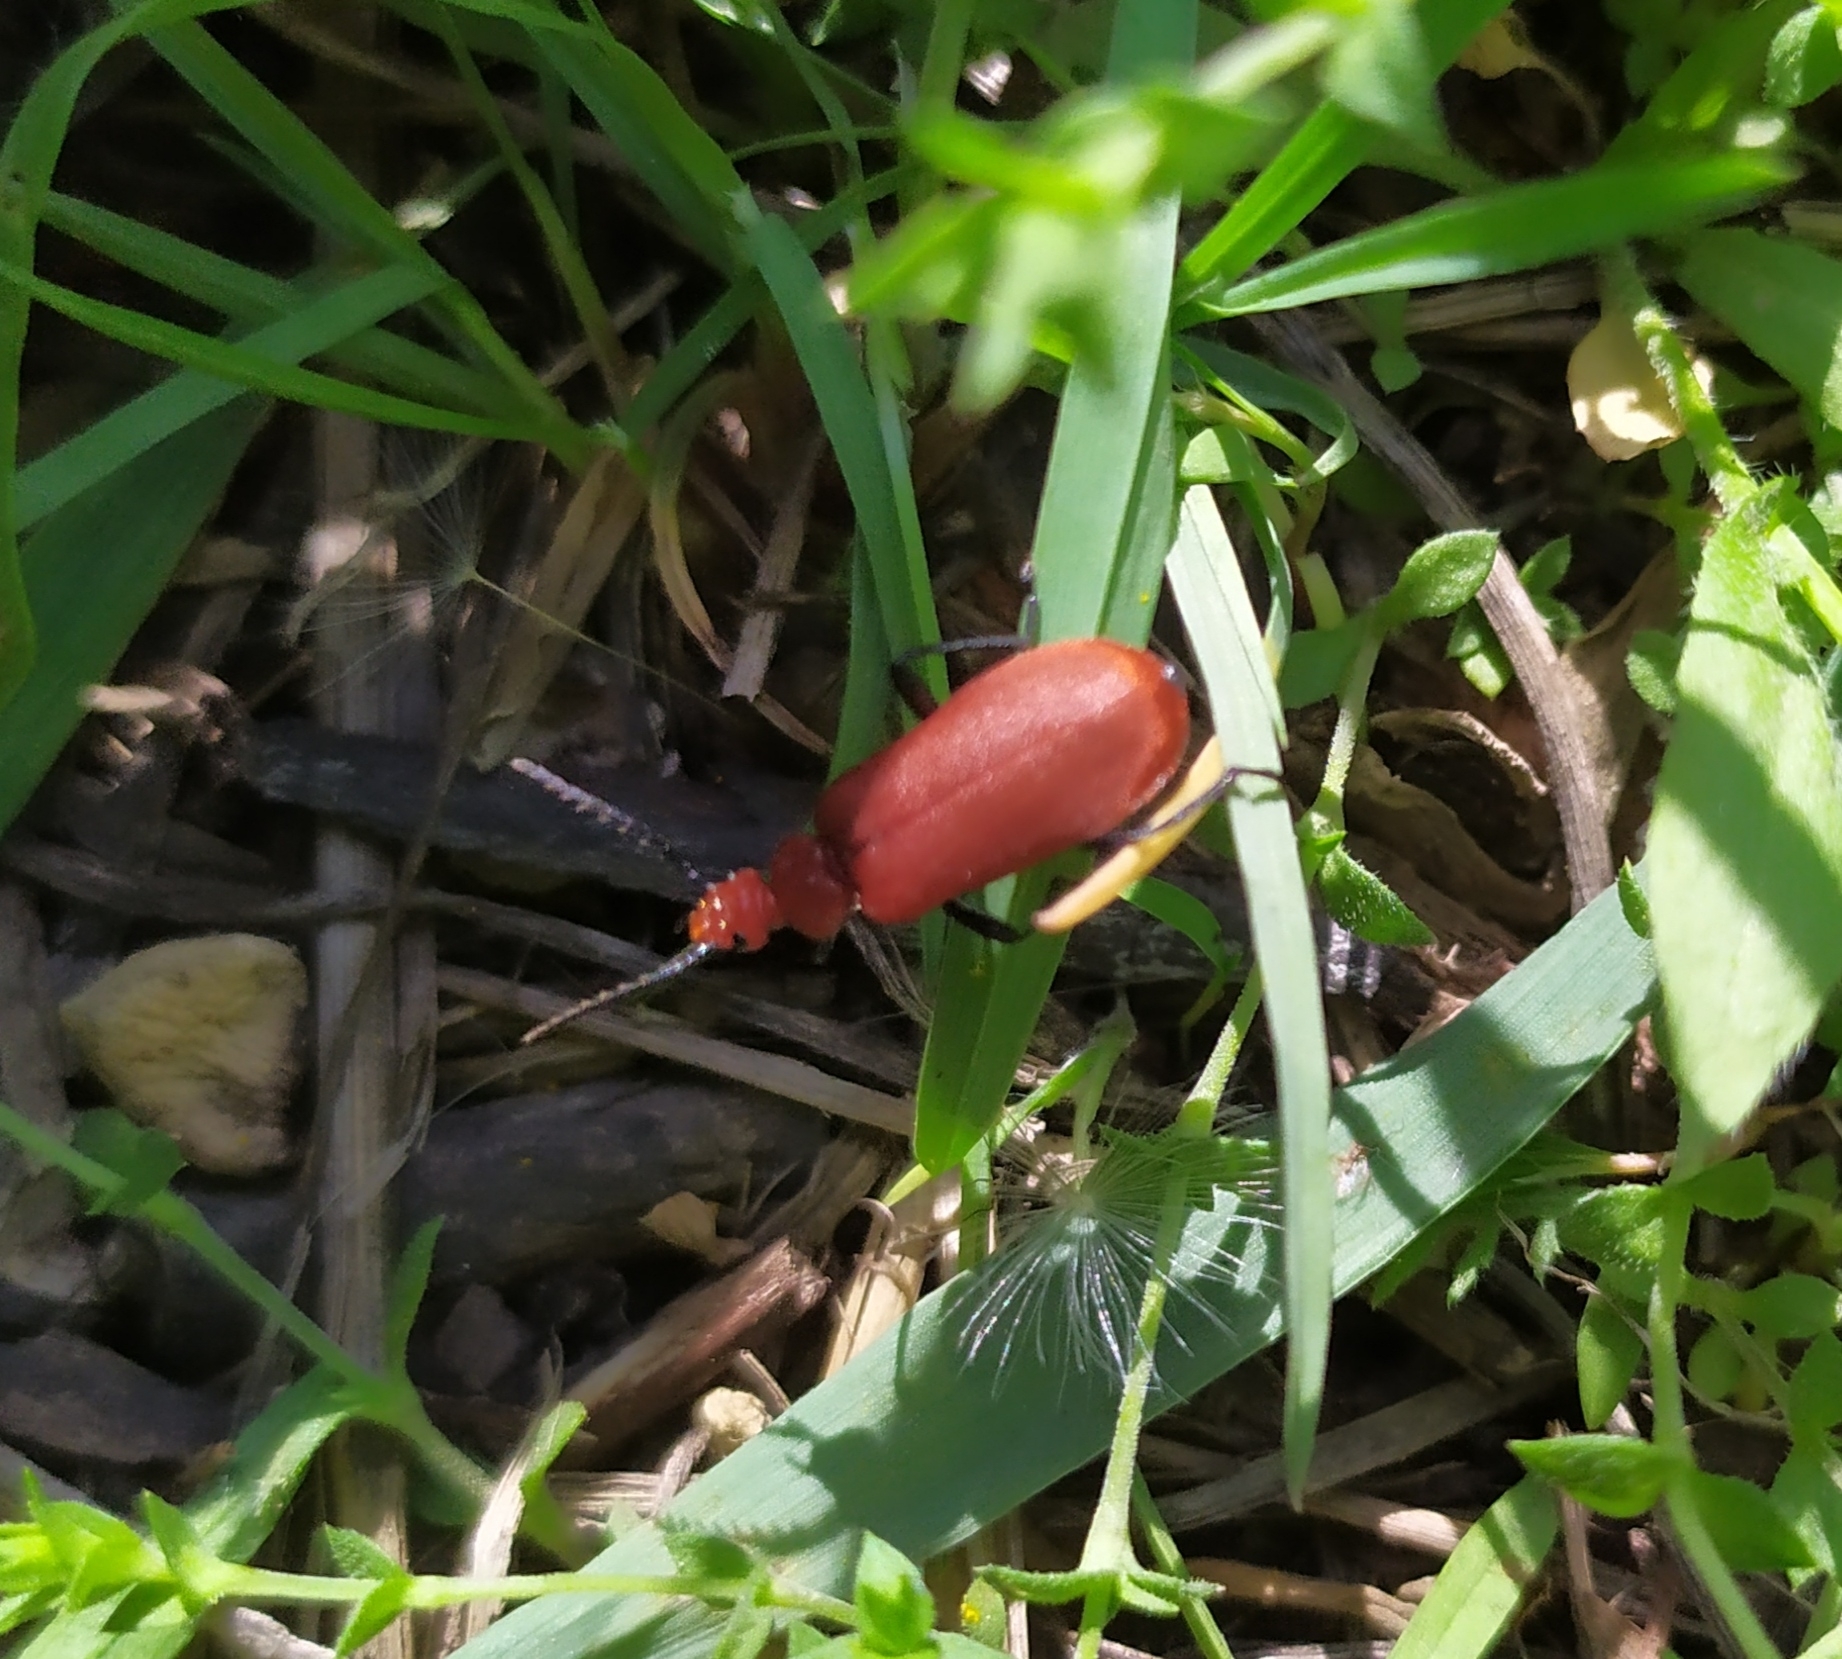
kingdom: Animalia
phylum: Arthropoda
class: Insecta
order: Coleoptera
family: Pyrochroidae
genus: Pyrochroa
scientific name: Pyrochroa serraticornis
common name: Red-headed cardinal beetle
